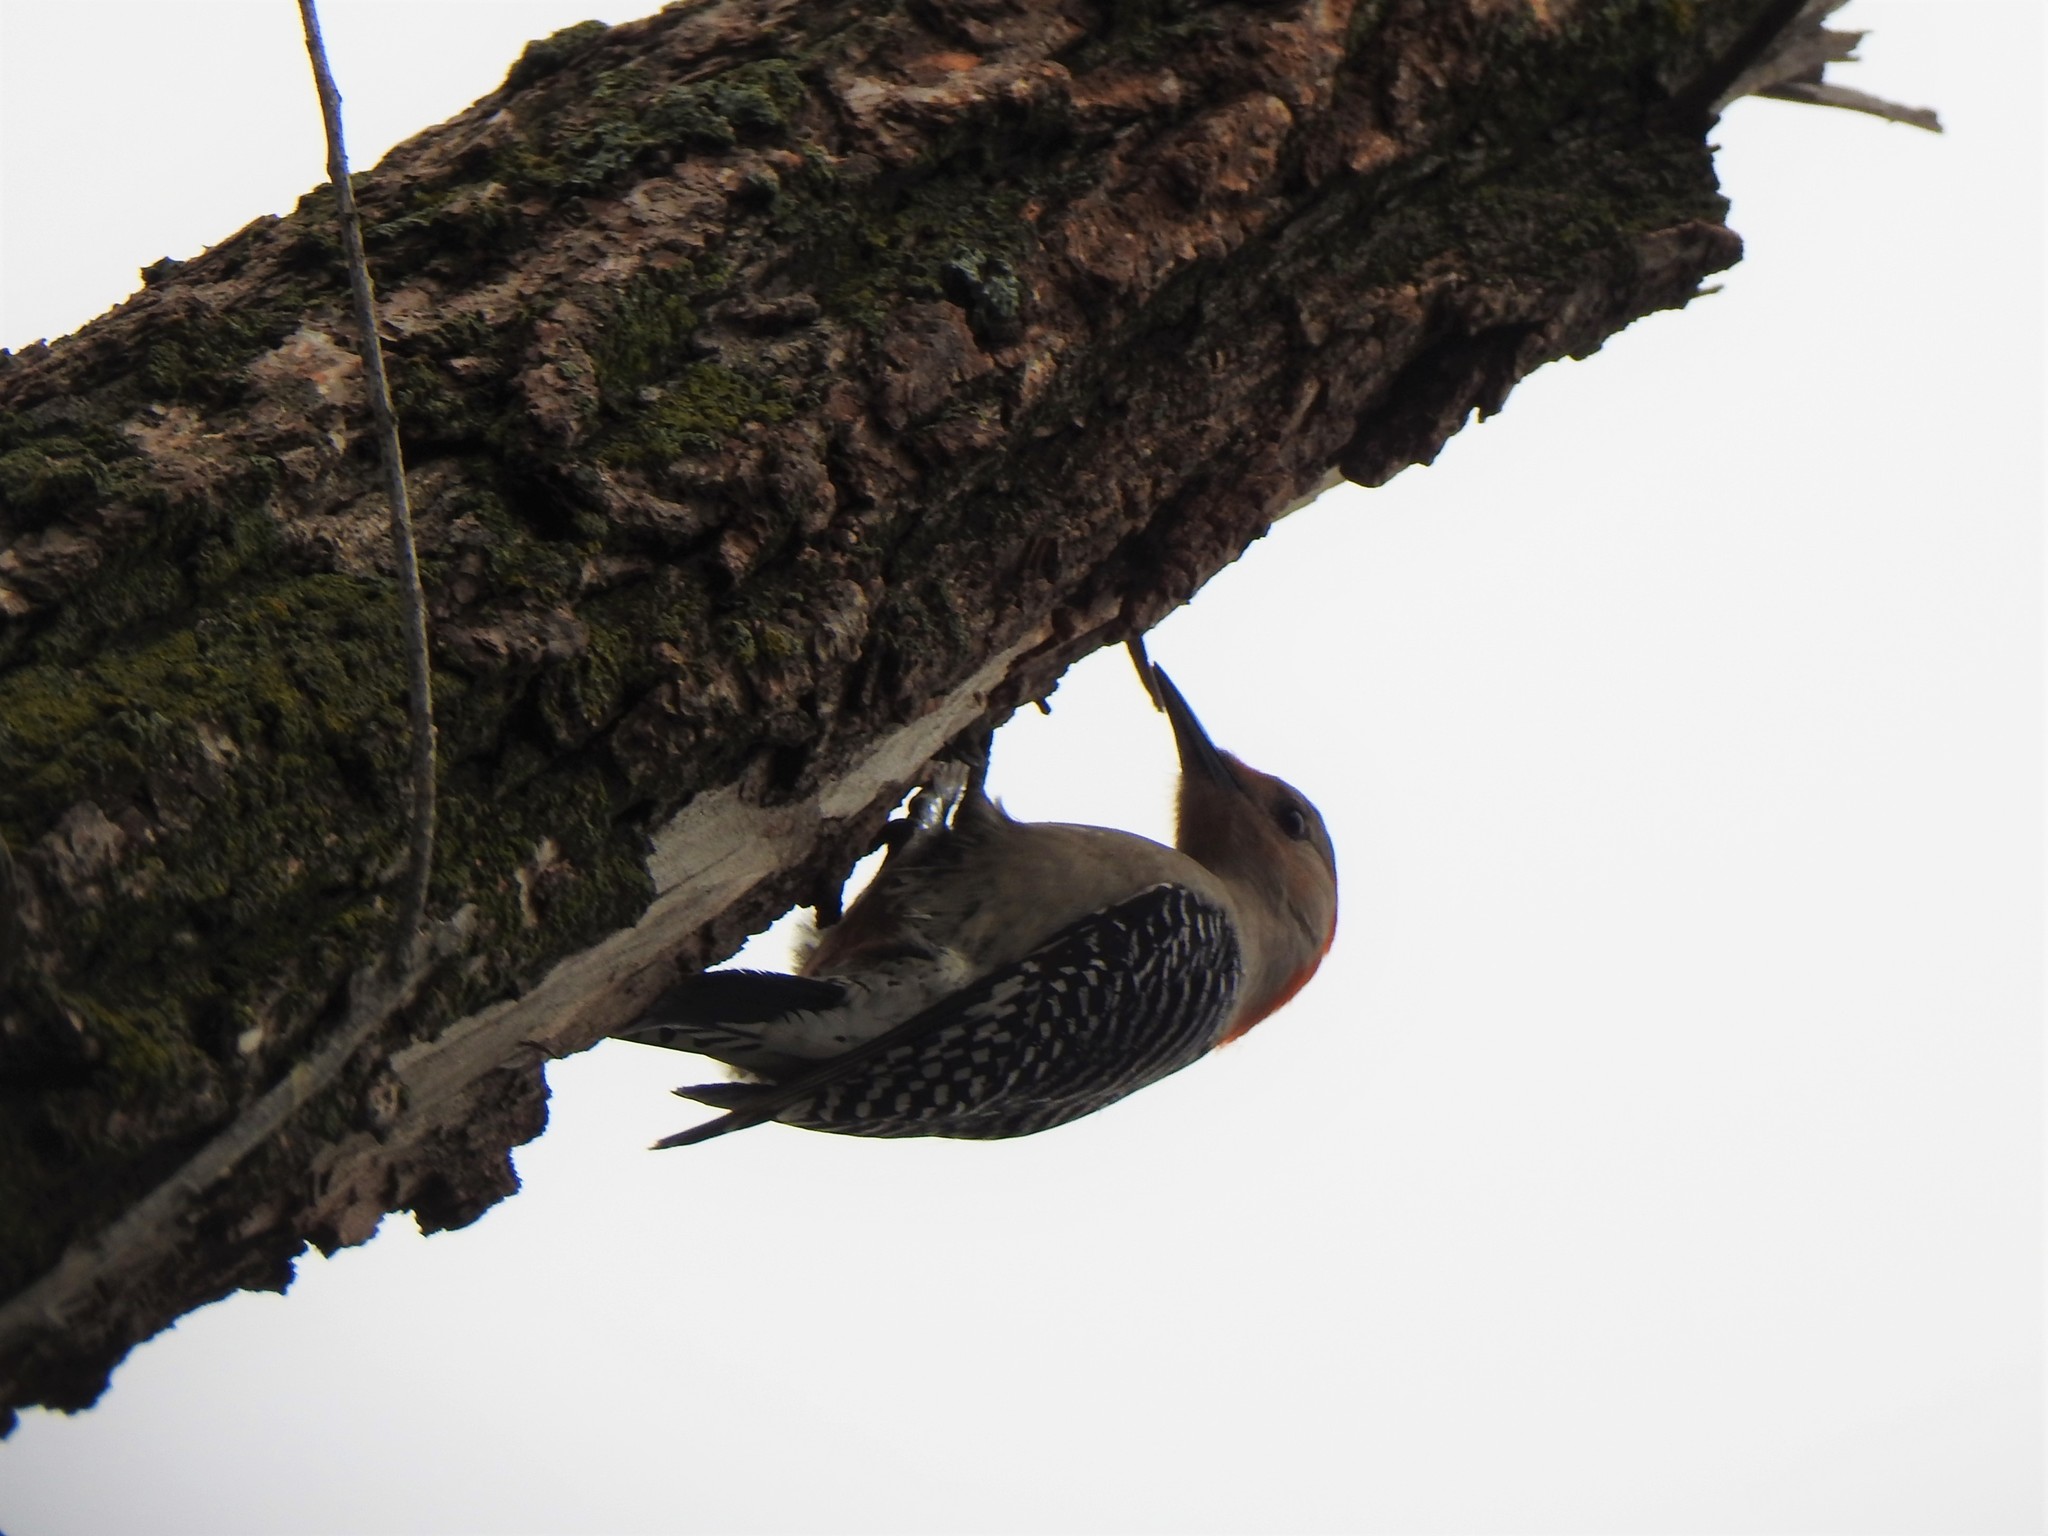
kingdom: Animalia
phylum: Chordata
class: Aves
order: Piciformes
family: Picidae
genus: Melanerpes
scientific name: Melanerpes carolinus
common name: Red-bellied woodpecker
